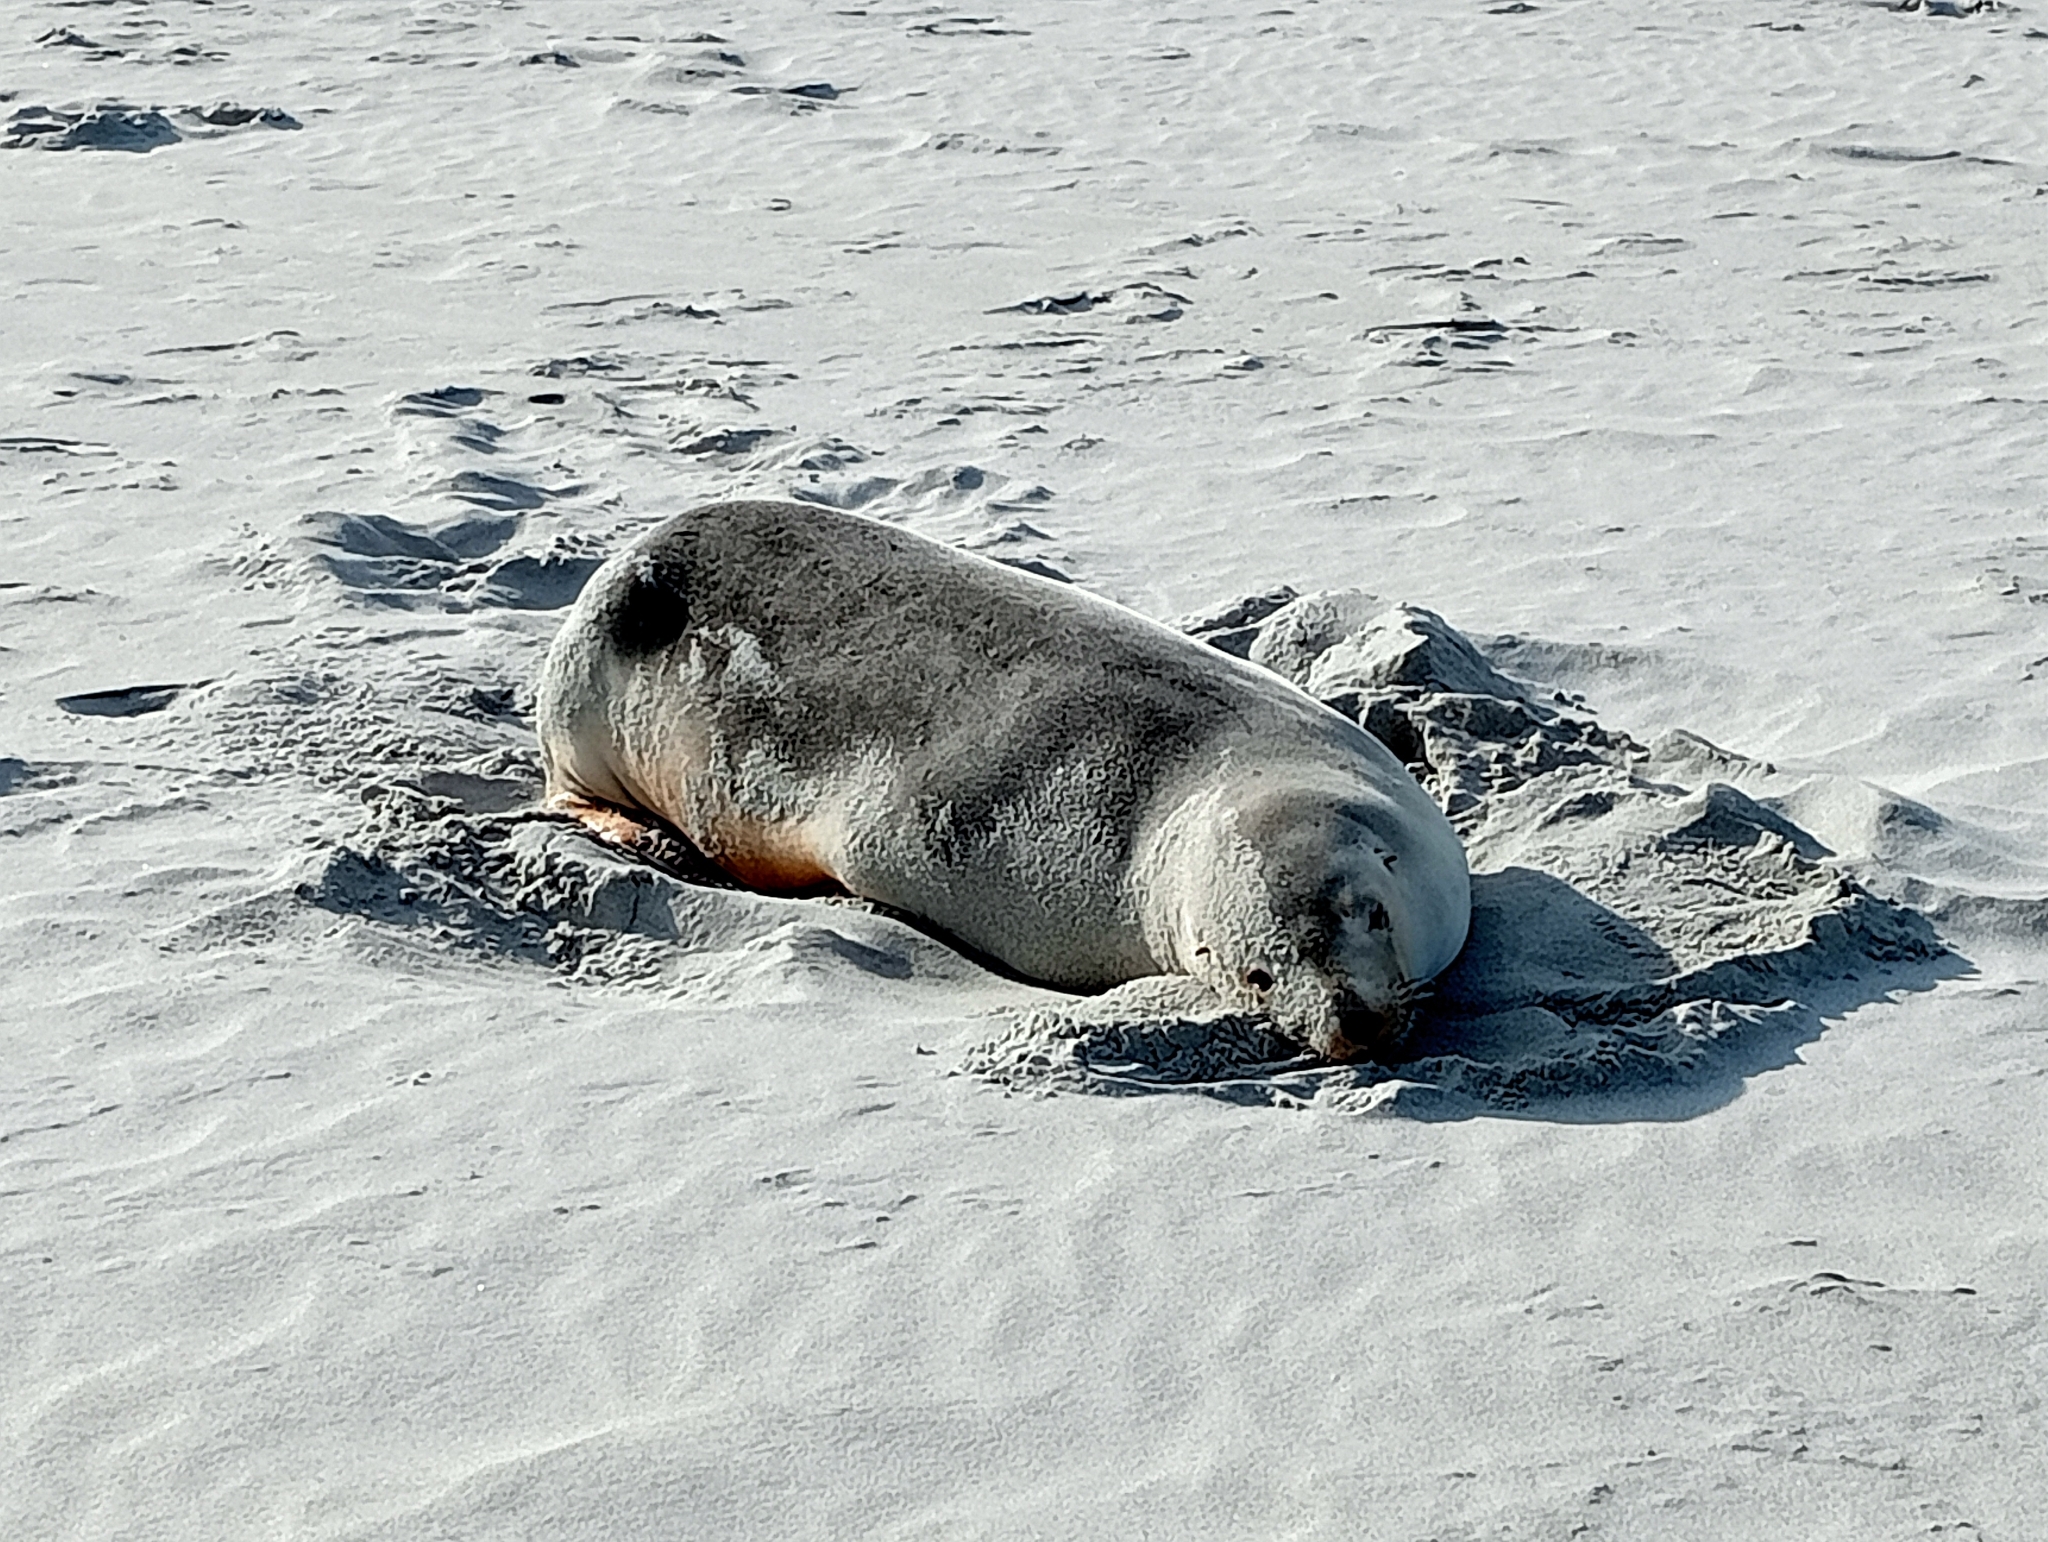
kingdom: Animalia
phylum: Chordata
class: Mammalia
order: Carnivora
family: Otariidae
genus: Phocarctos
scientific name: Phocarctos hookeri
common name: New zealand sea lion
